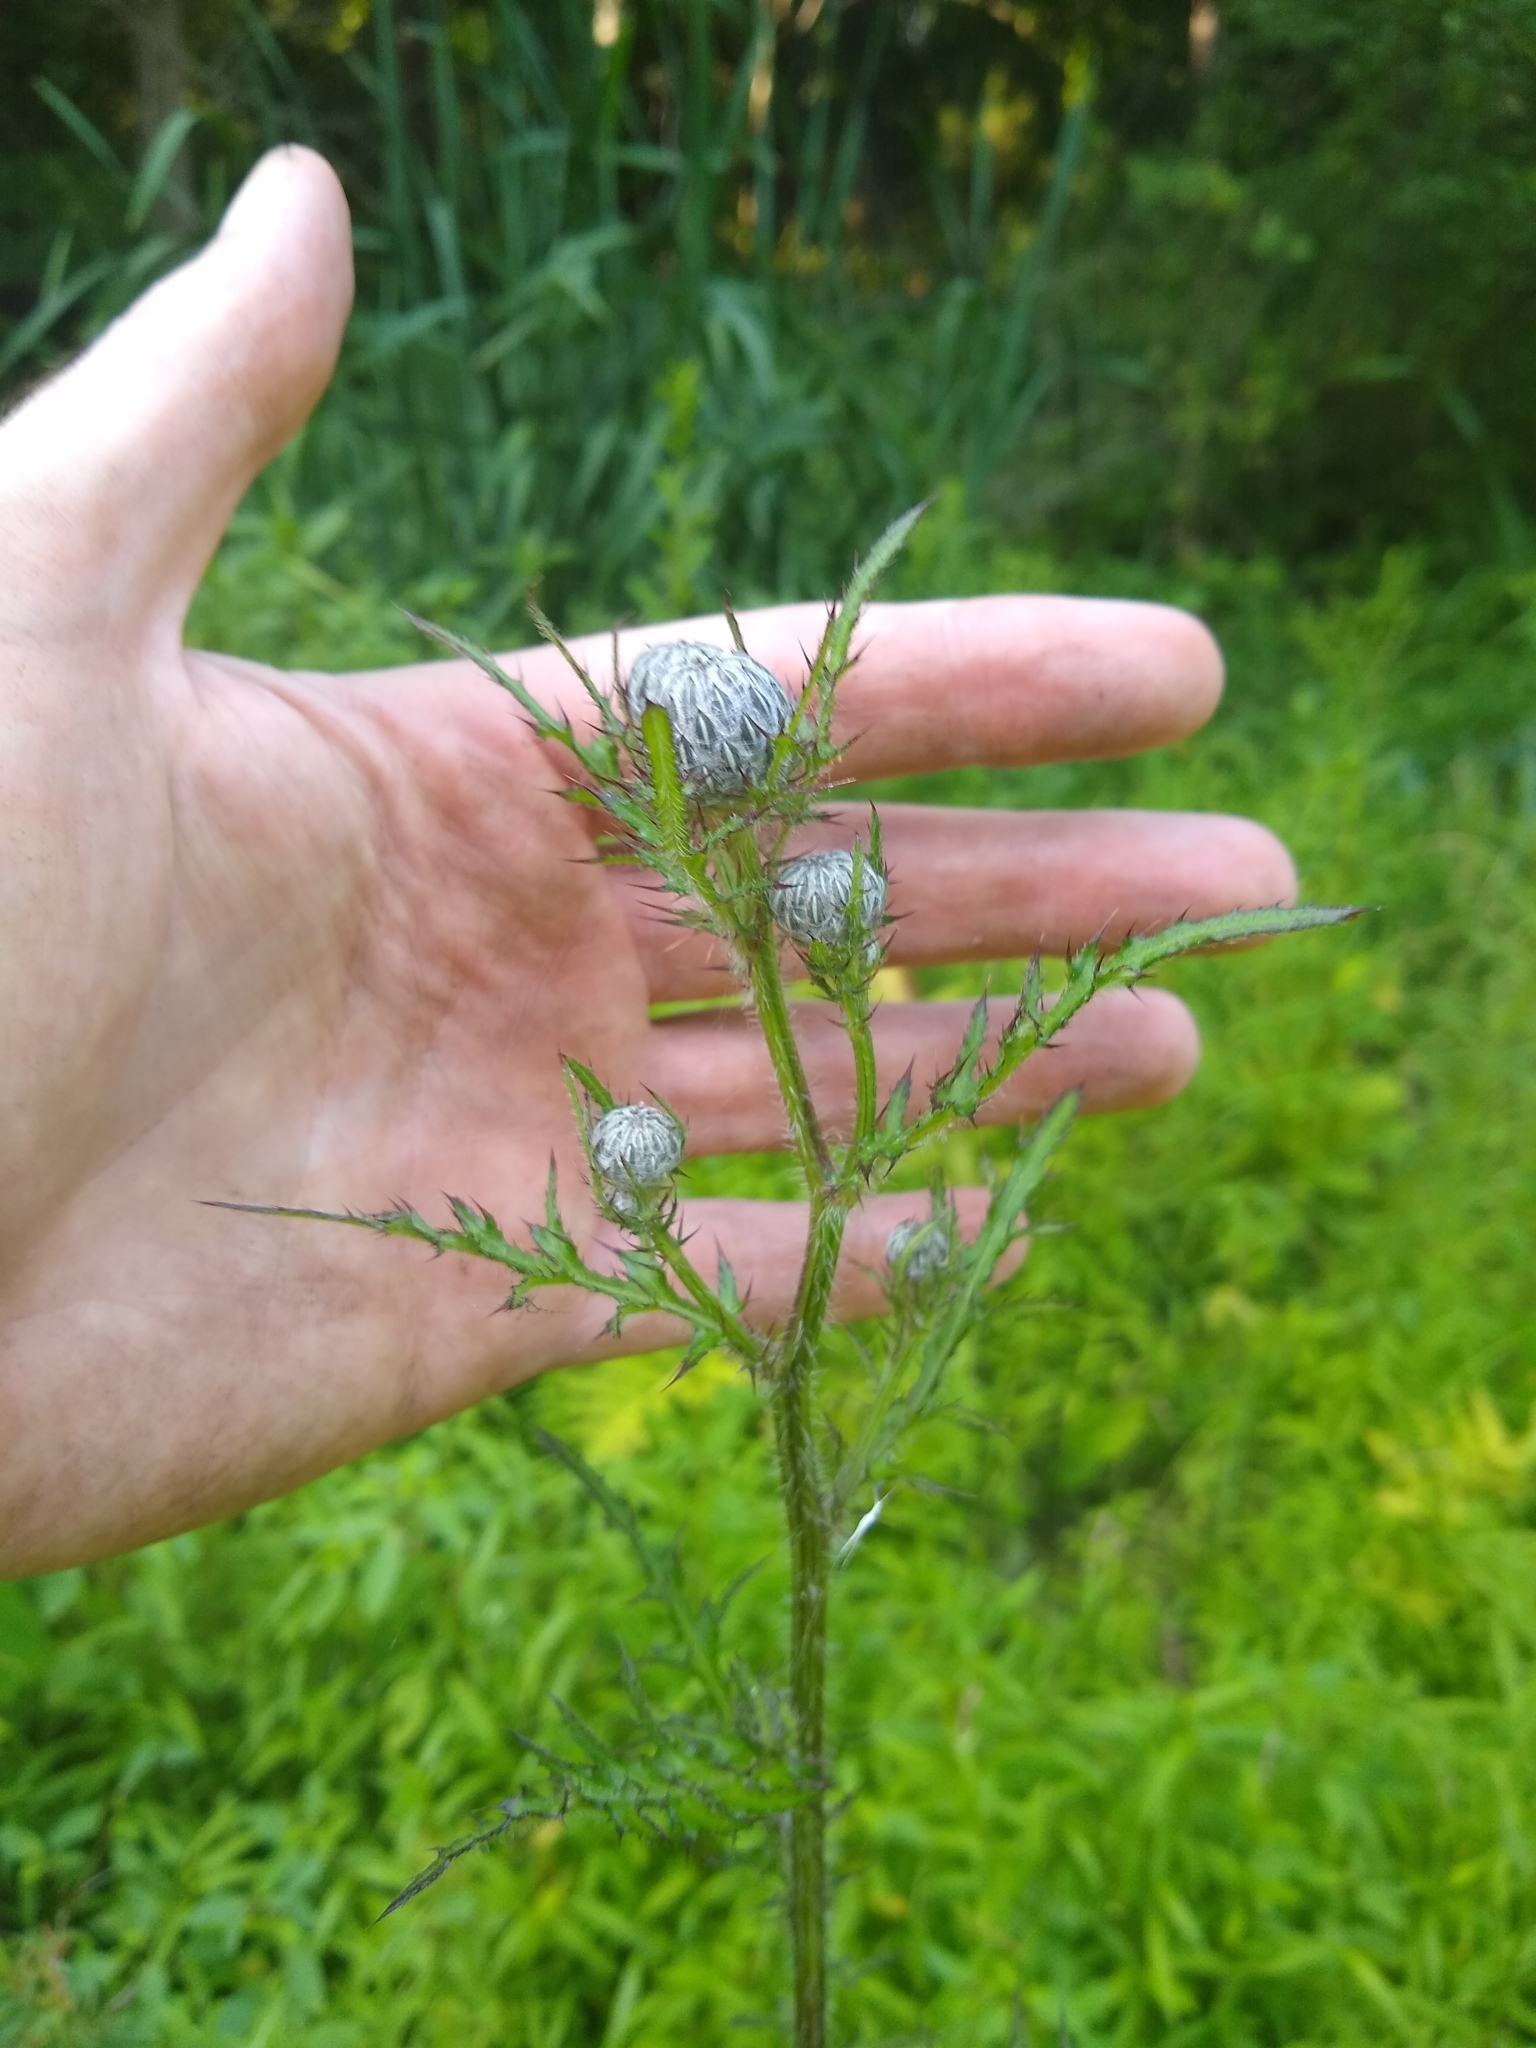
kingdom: Plantae
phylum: Tracheophyta
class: Magnoliopsida
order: Asterales
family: Asteraceae
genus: Cirsium
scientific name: Cirsium muticum
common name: Dunce-nettle
